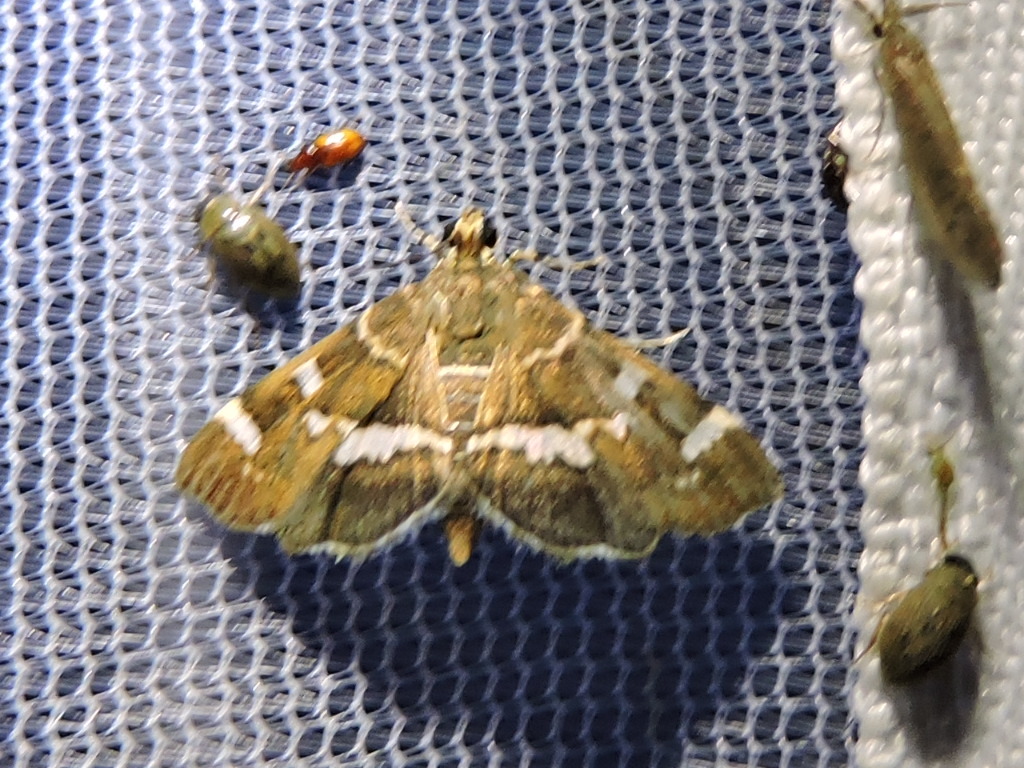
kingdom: Animalia
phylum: Arthropoda
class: Insecta
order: Lepidoptera
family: Crambidae
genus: Hymenia
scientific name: Hymenia perspectalis
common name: Spotted beet webworm
